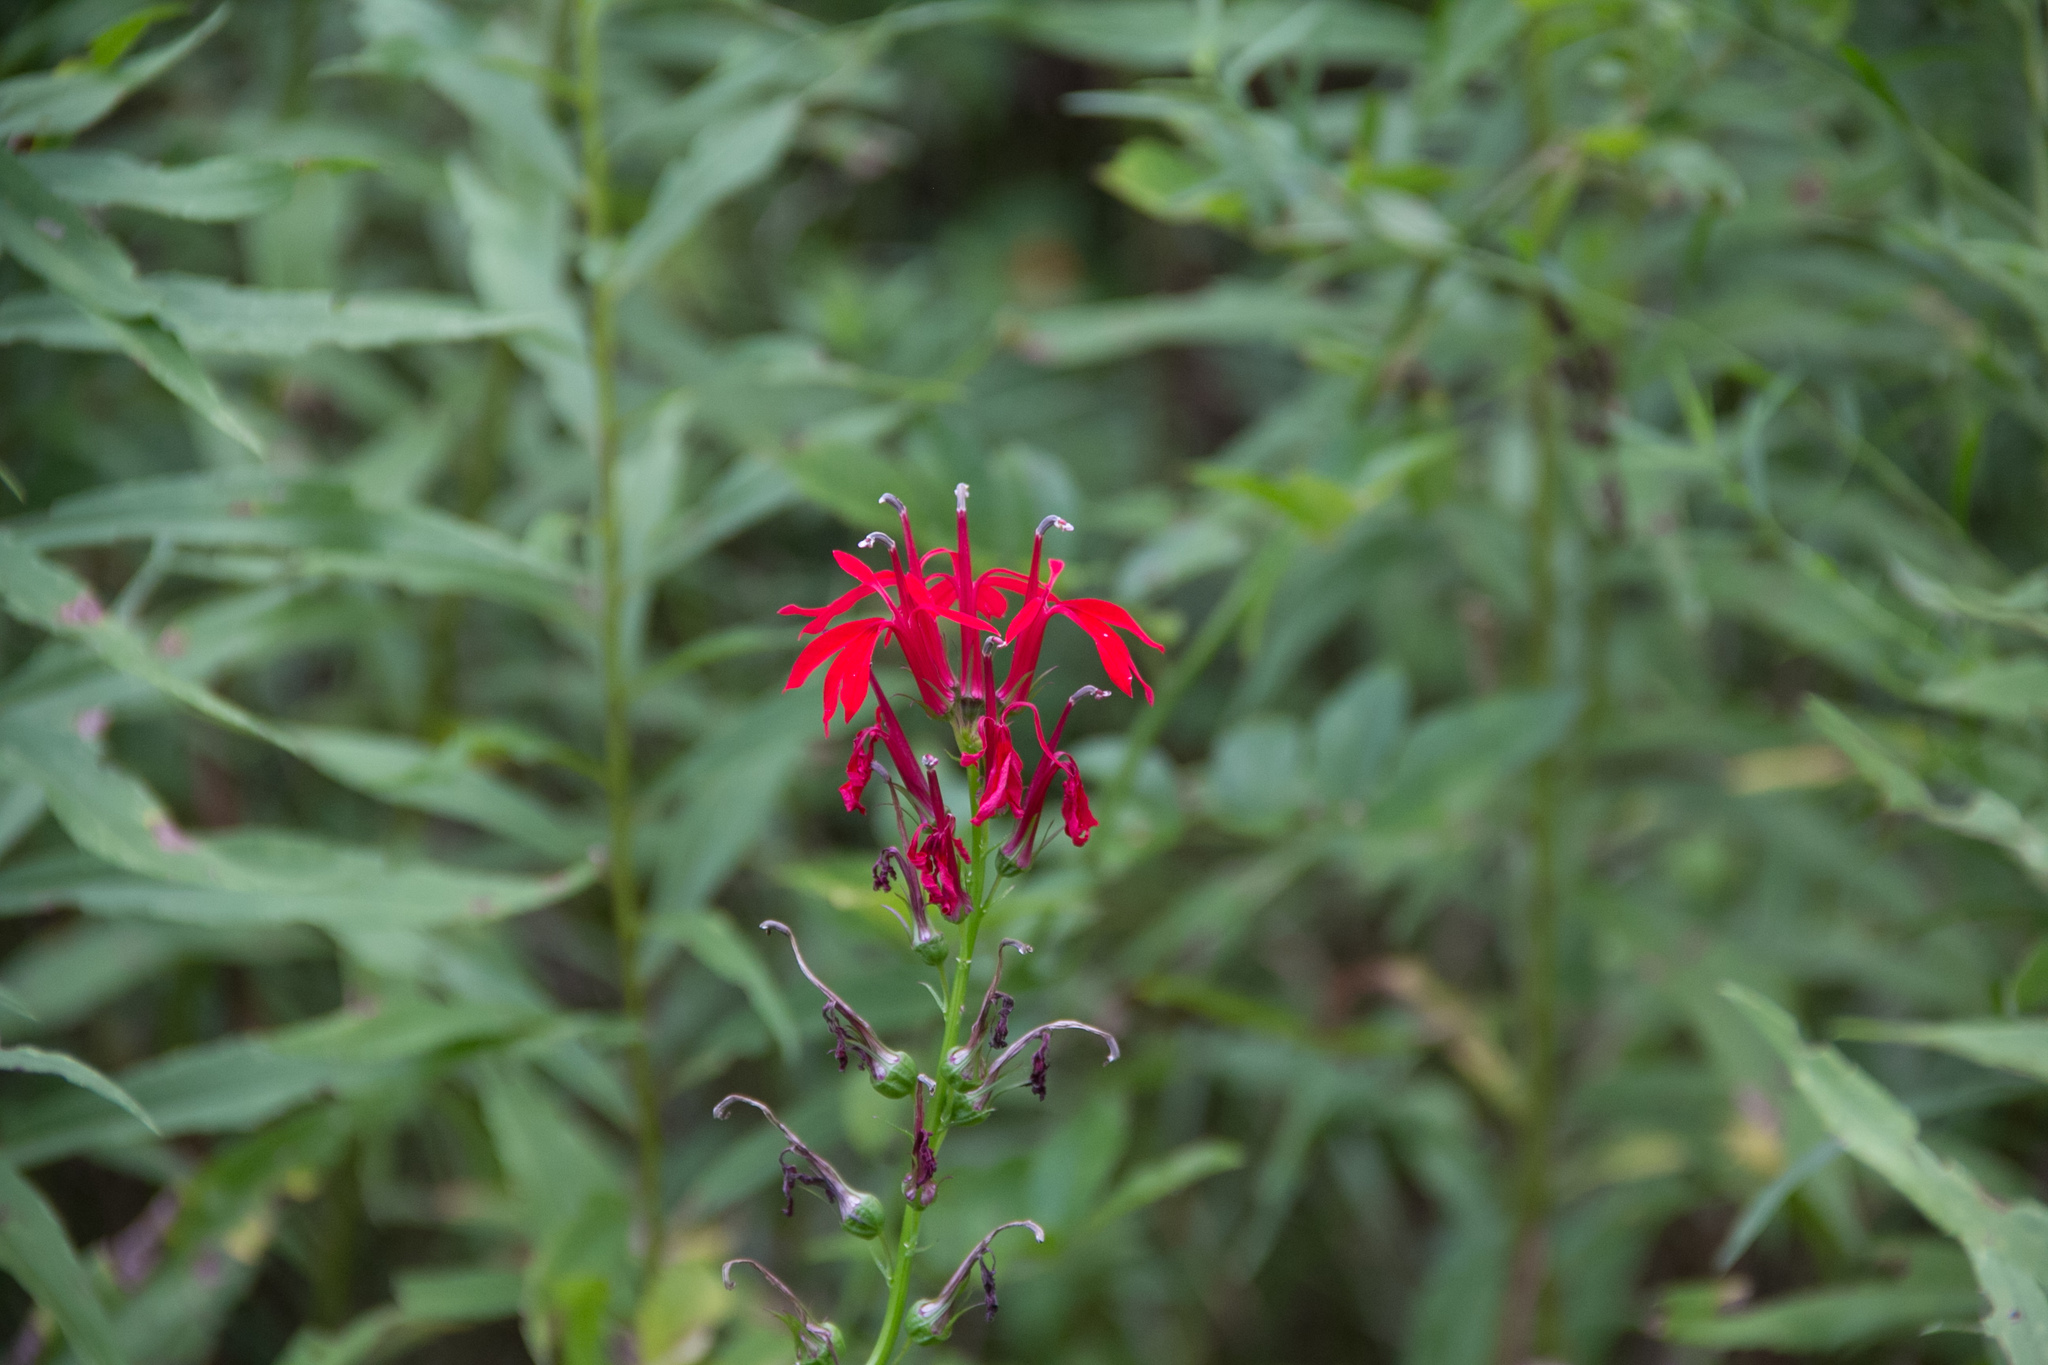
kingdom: Plantae
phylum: Tracheophyta
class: Magnoliopsida
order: Asterales
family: Campanulaceae
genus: Lobelia
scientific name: Lobelia cardinalis
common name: Cardinal flower
